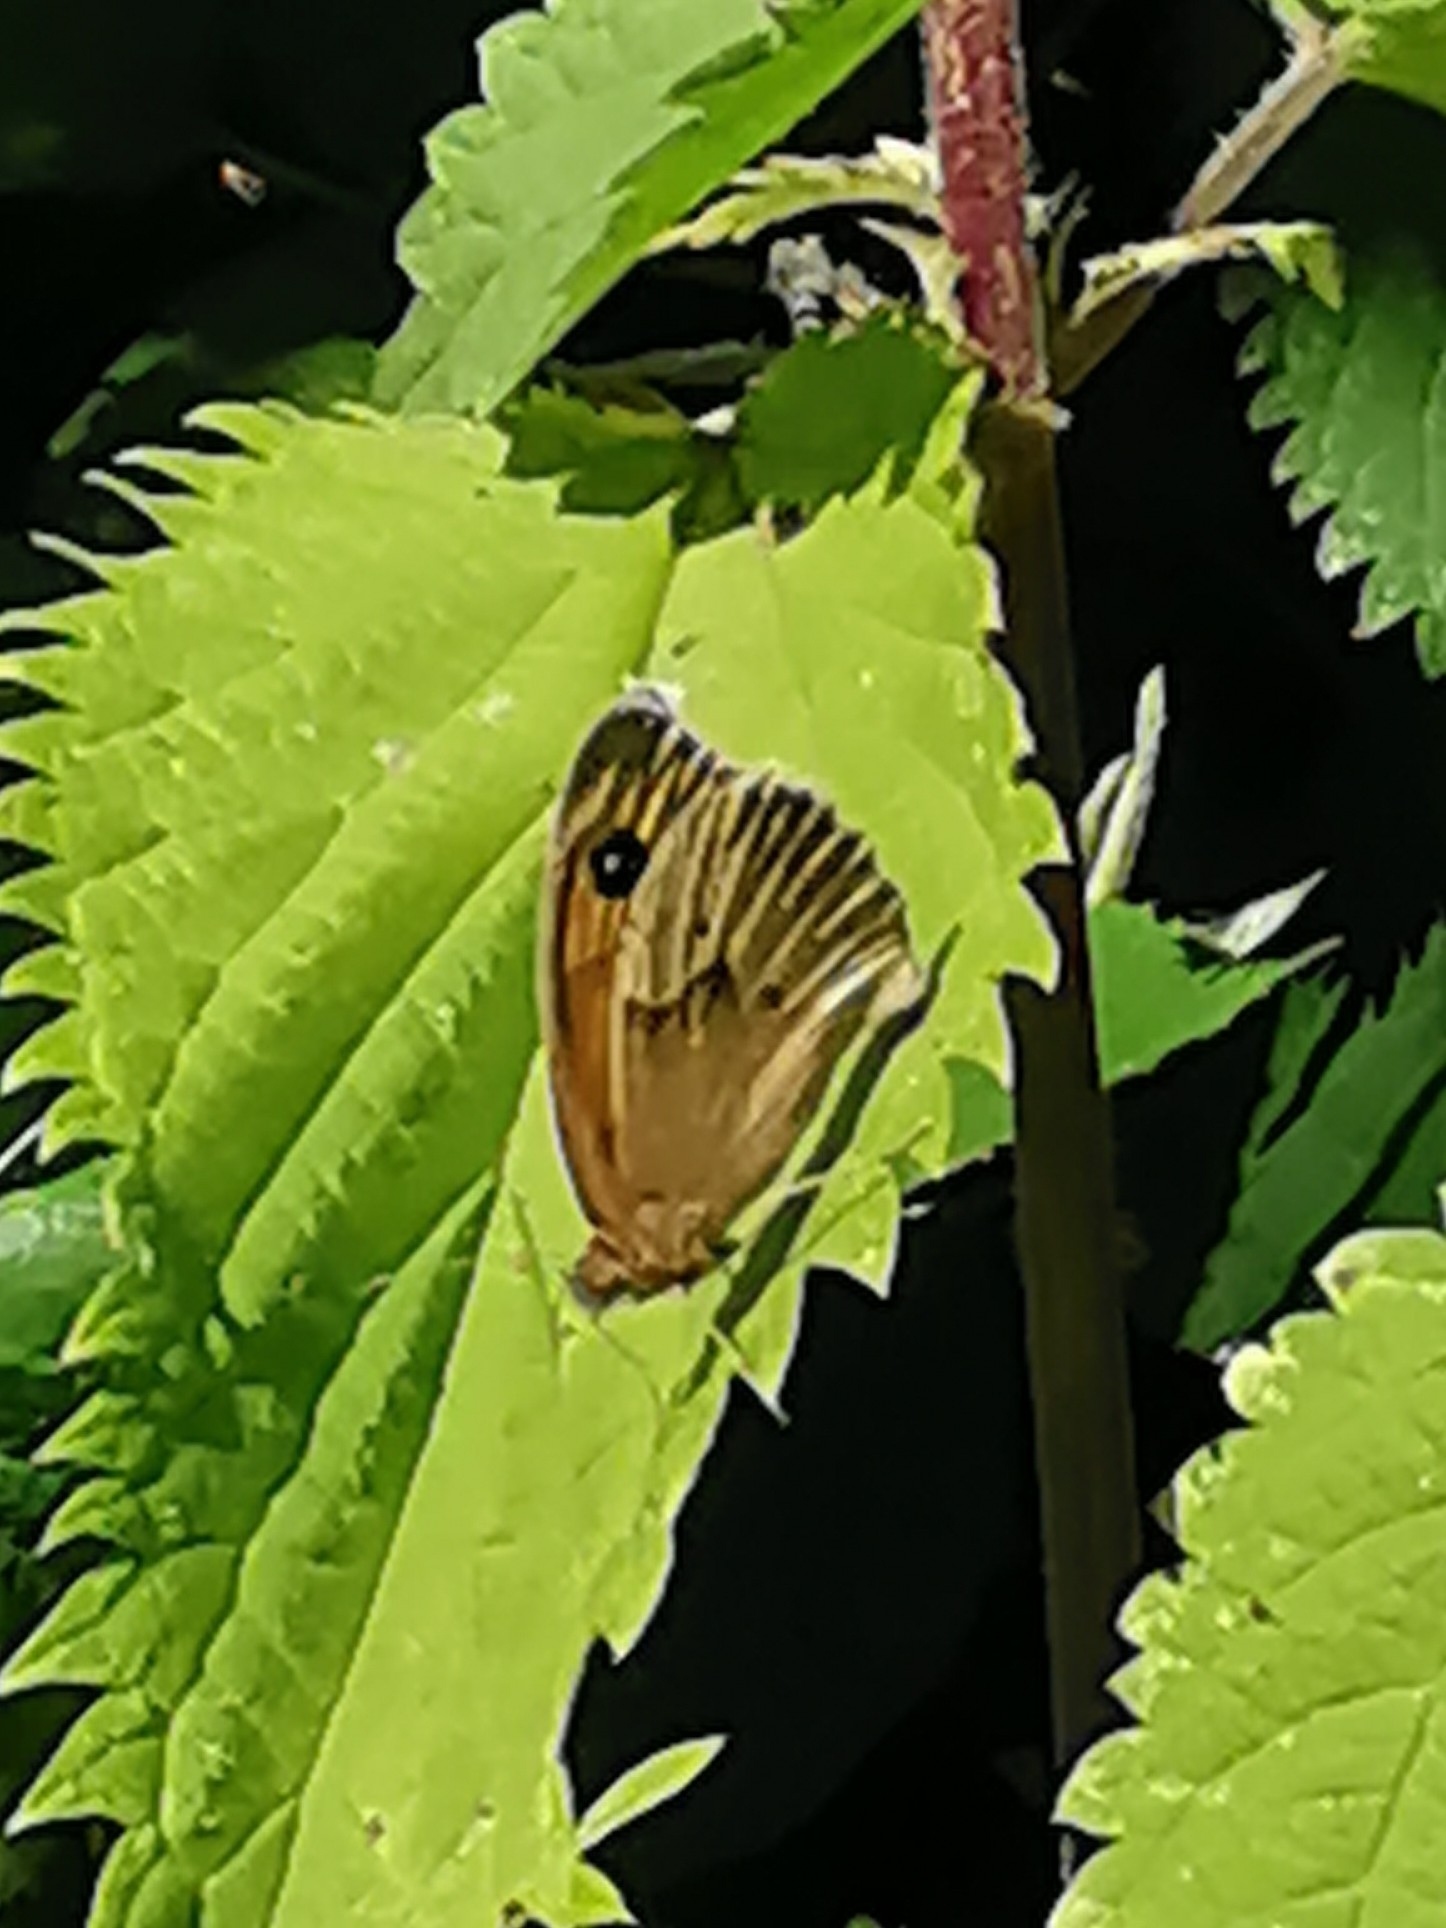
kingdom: Animalia
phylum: Arthropoda
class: Insecta
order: Lepidoptera
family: Nymphalidae
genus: Maniola
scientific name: Maniola jurtina
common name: Meadow brown
